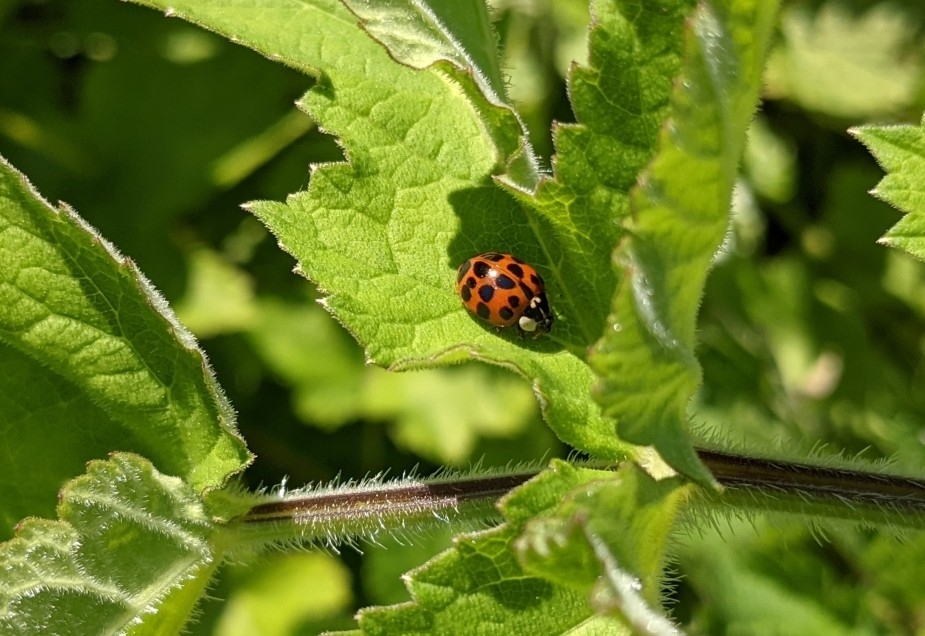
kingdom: Animalia
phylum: Arthropoda
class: Insecta
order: Coleoptera
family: Coccinellidae
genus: Harmonia
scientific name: Harmonia axyridis
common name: Harlequin ladybird
